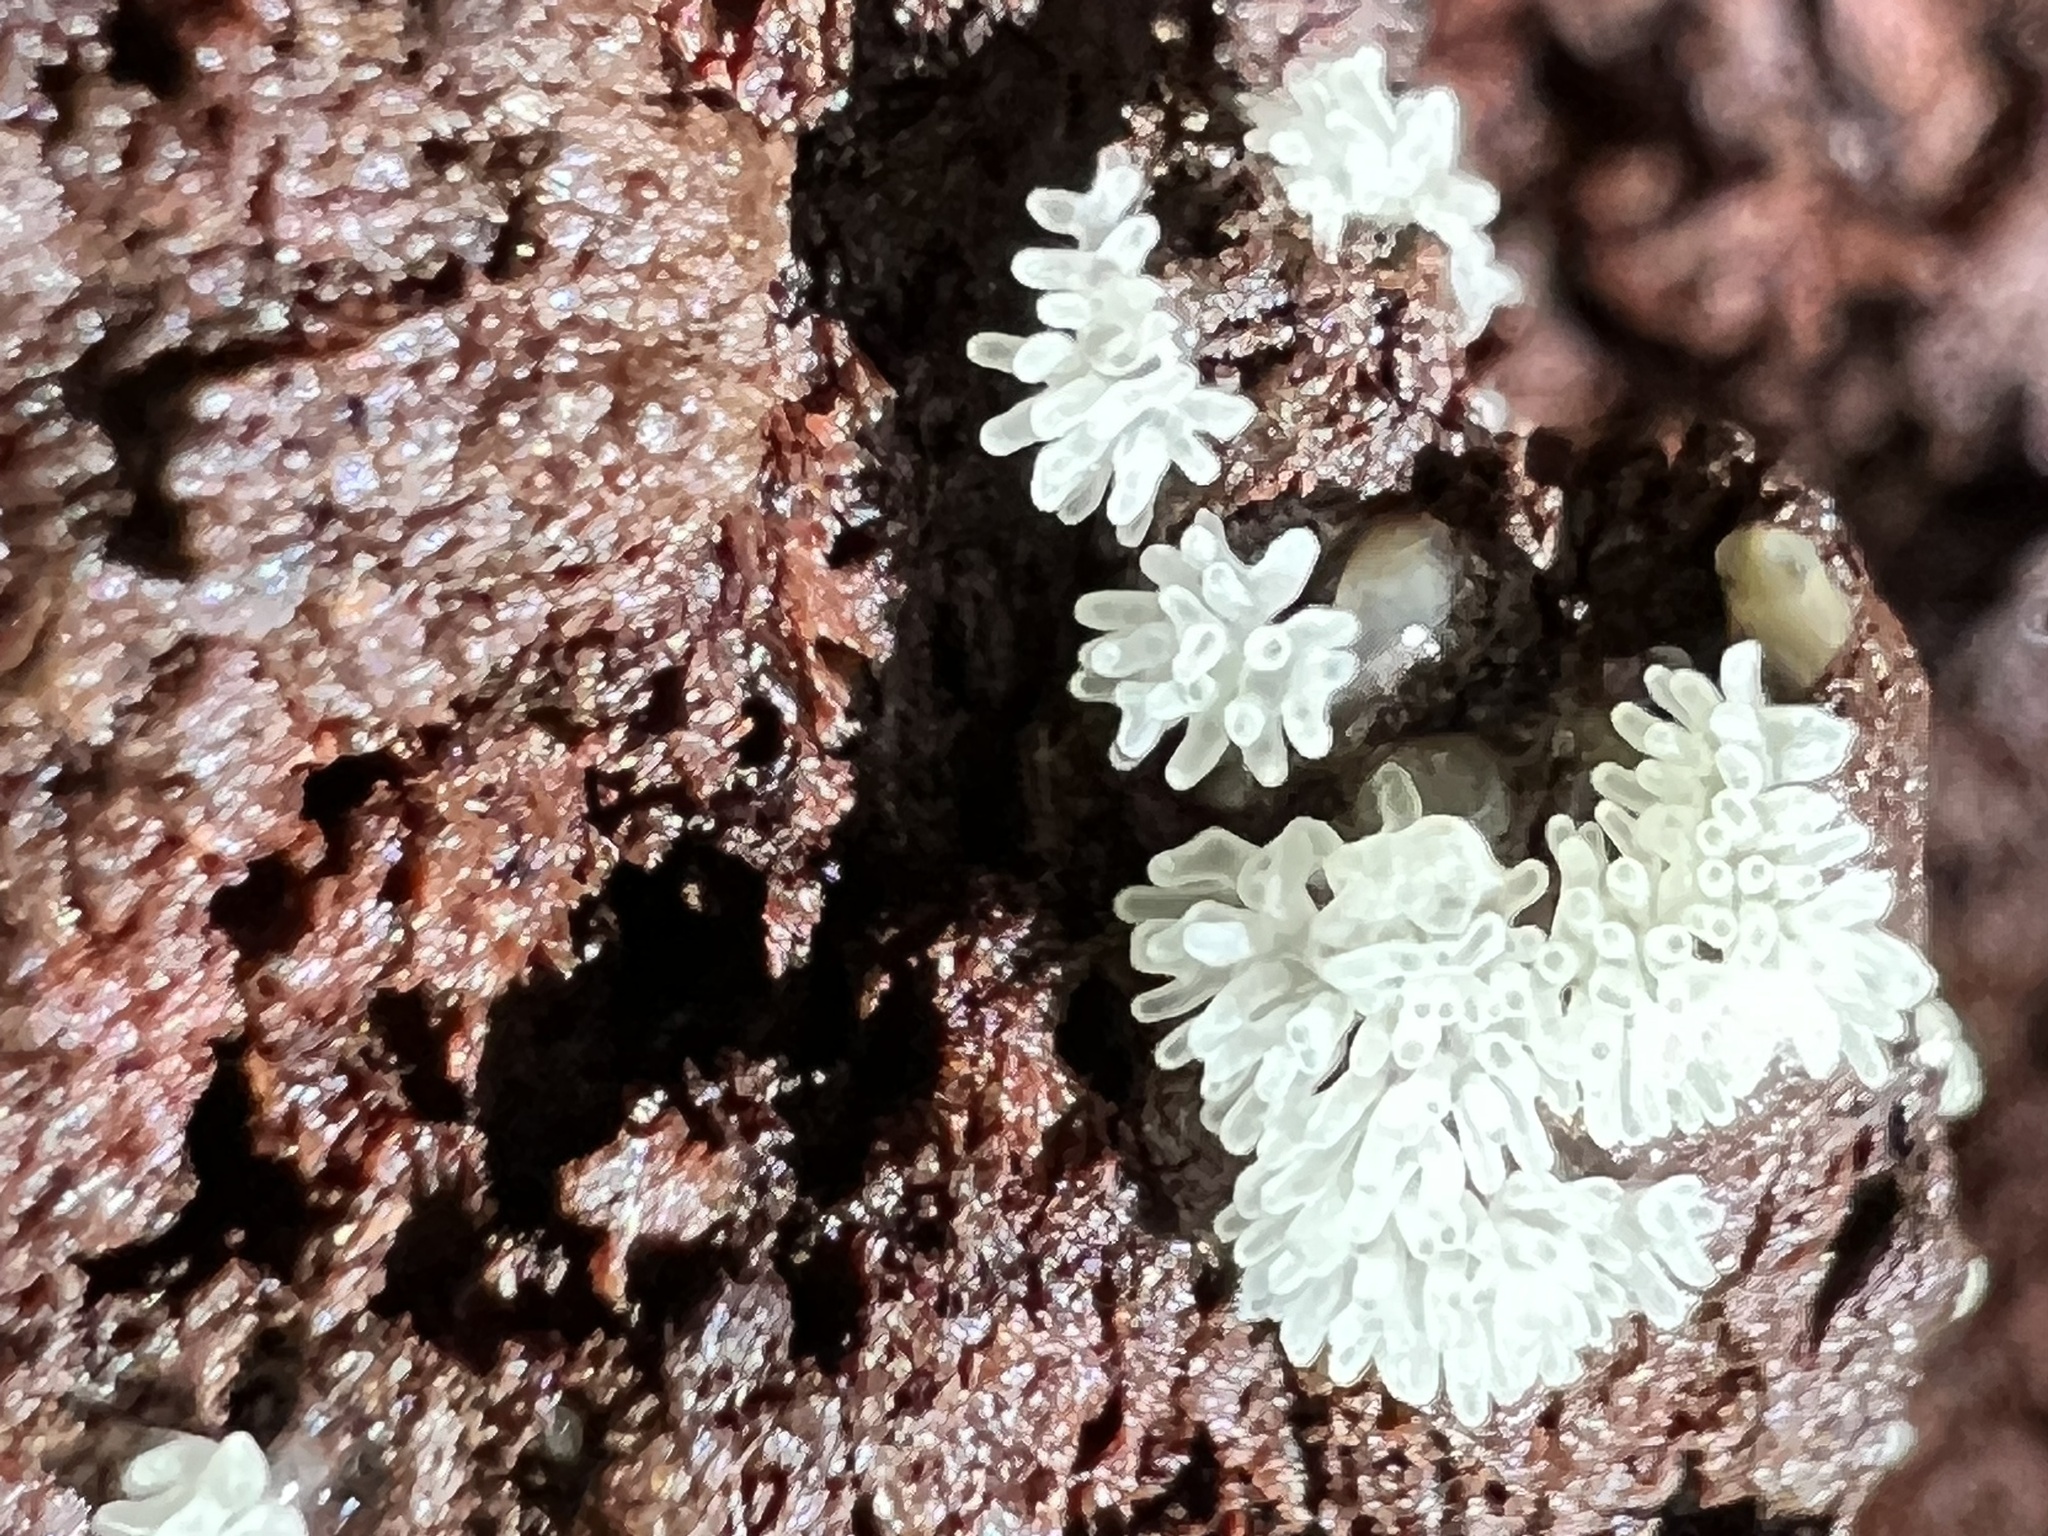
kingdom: Protozoa
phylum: Mycetozoa
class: Protosteliomycetes
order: Ceratiomyxales
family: Ceratiomyxaceae
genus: Ceratiomyxa
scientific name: Ceratiomyxa fruticulosa
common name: Honeycomb coral slime mold
